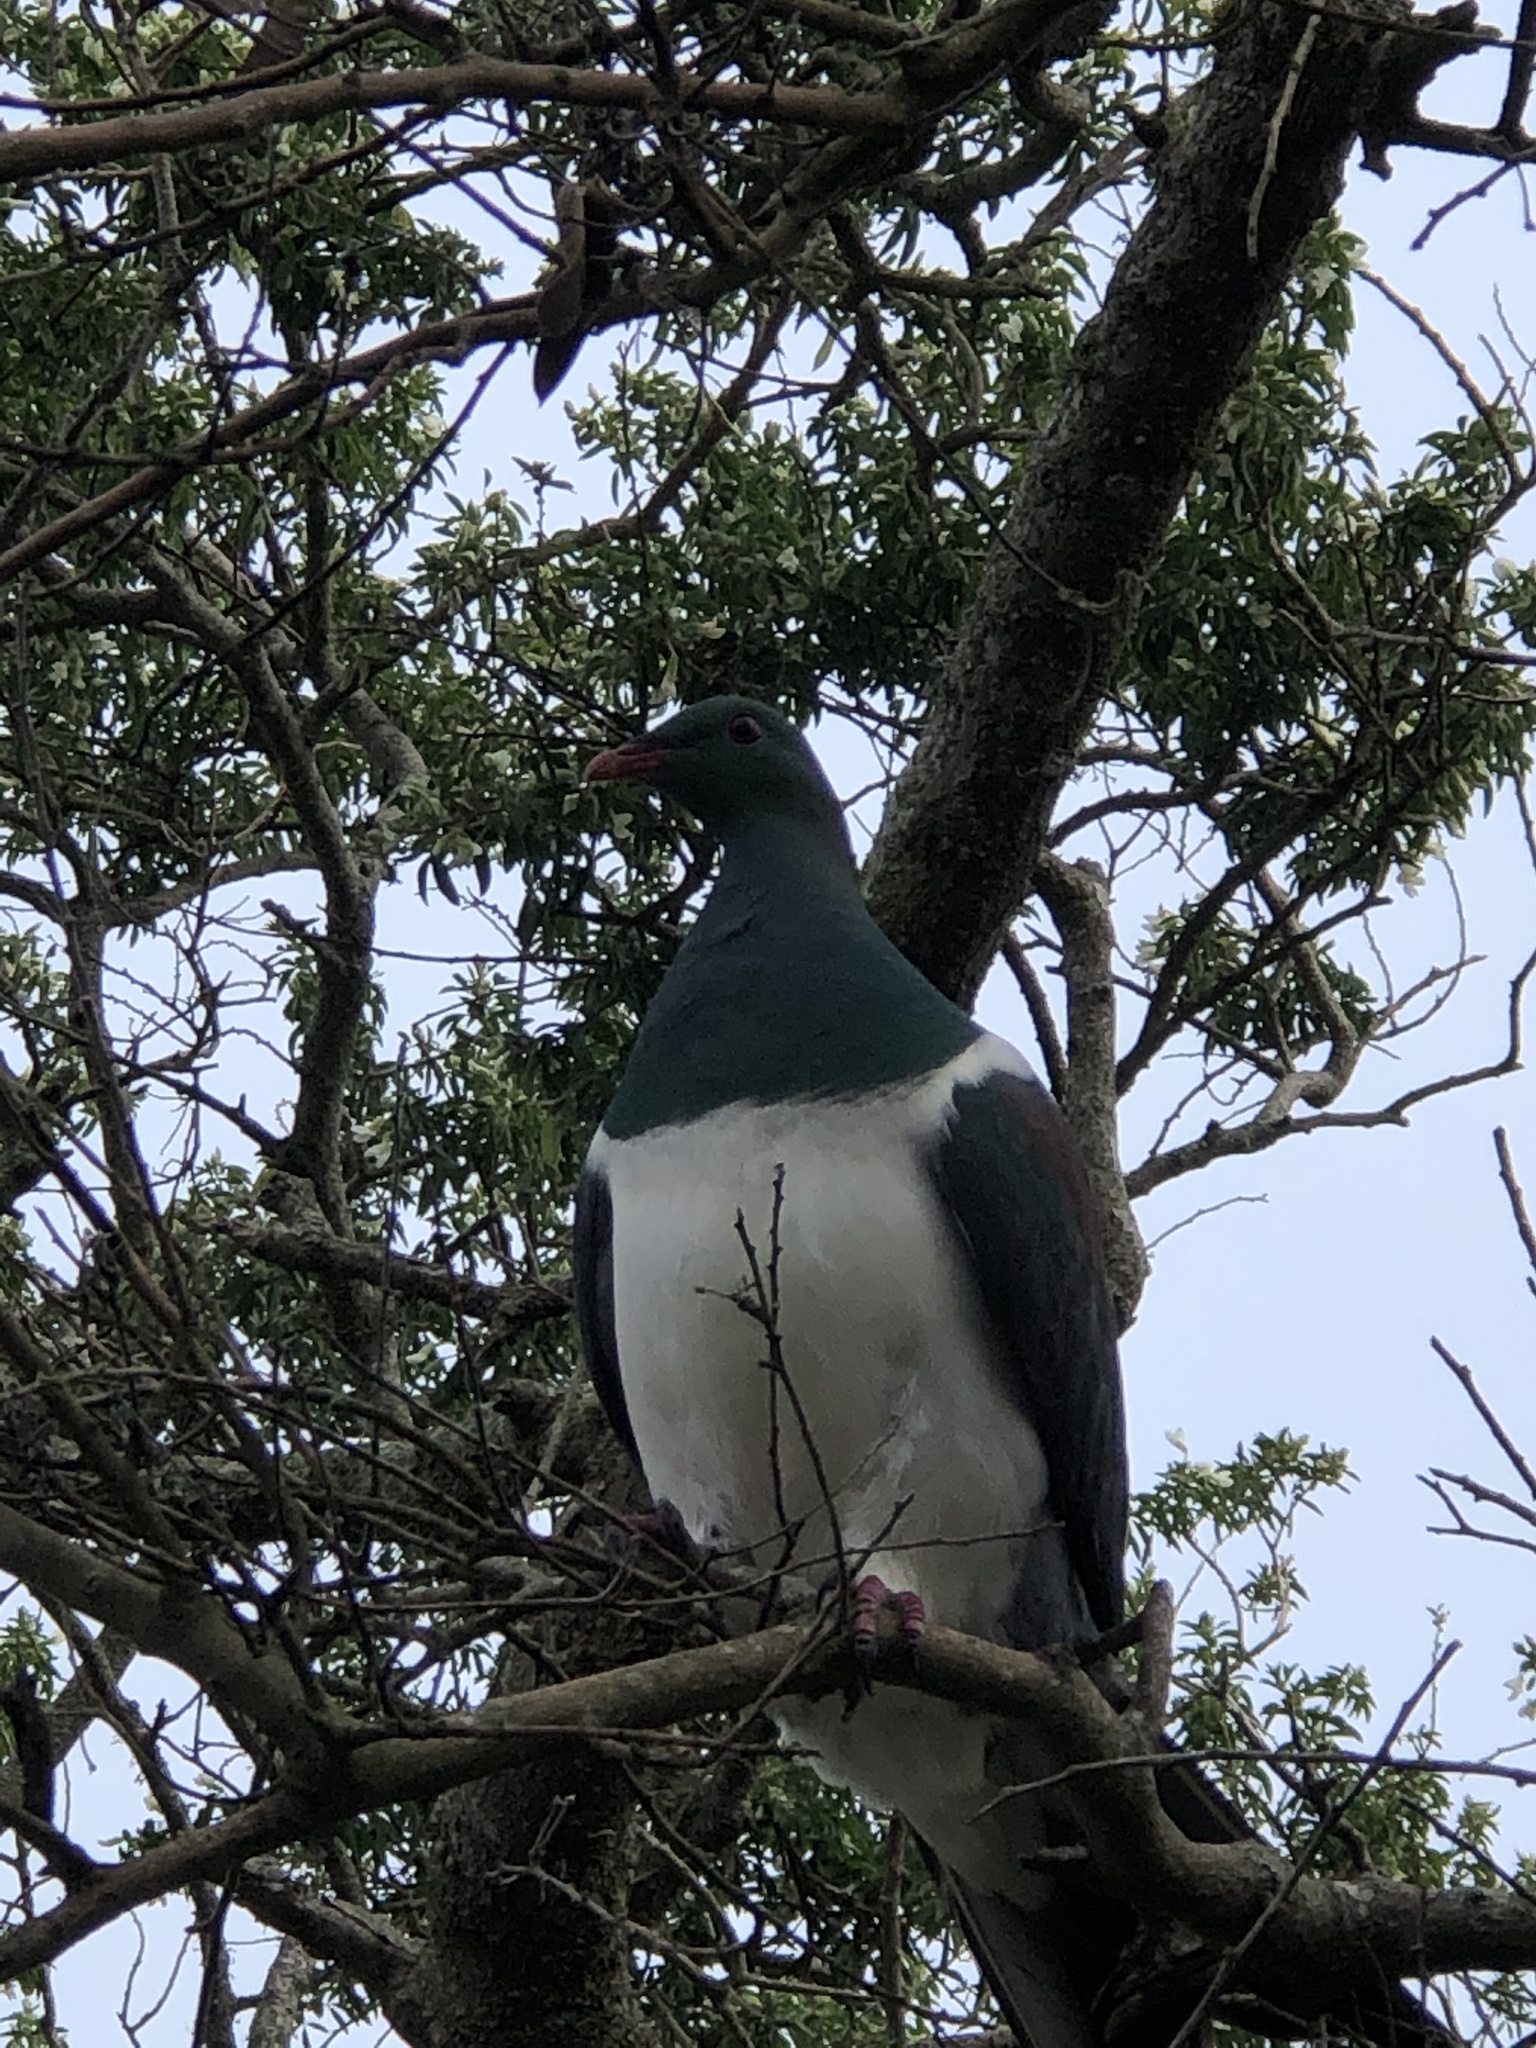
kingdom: Animalia
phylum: Chordata
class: Aves
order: Columbiformes
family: Columbidae
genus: Hemiphaga
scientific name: Hemiphaga novaeseelandiae
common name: New zealand pigeon
